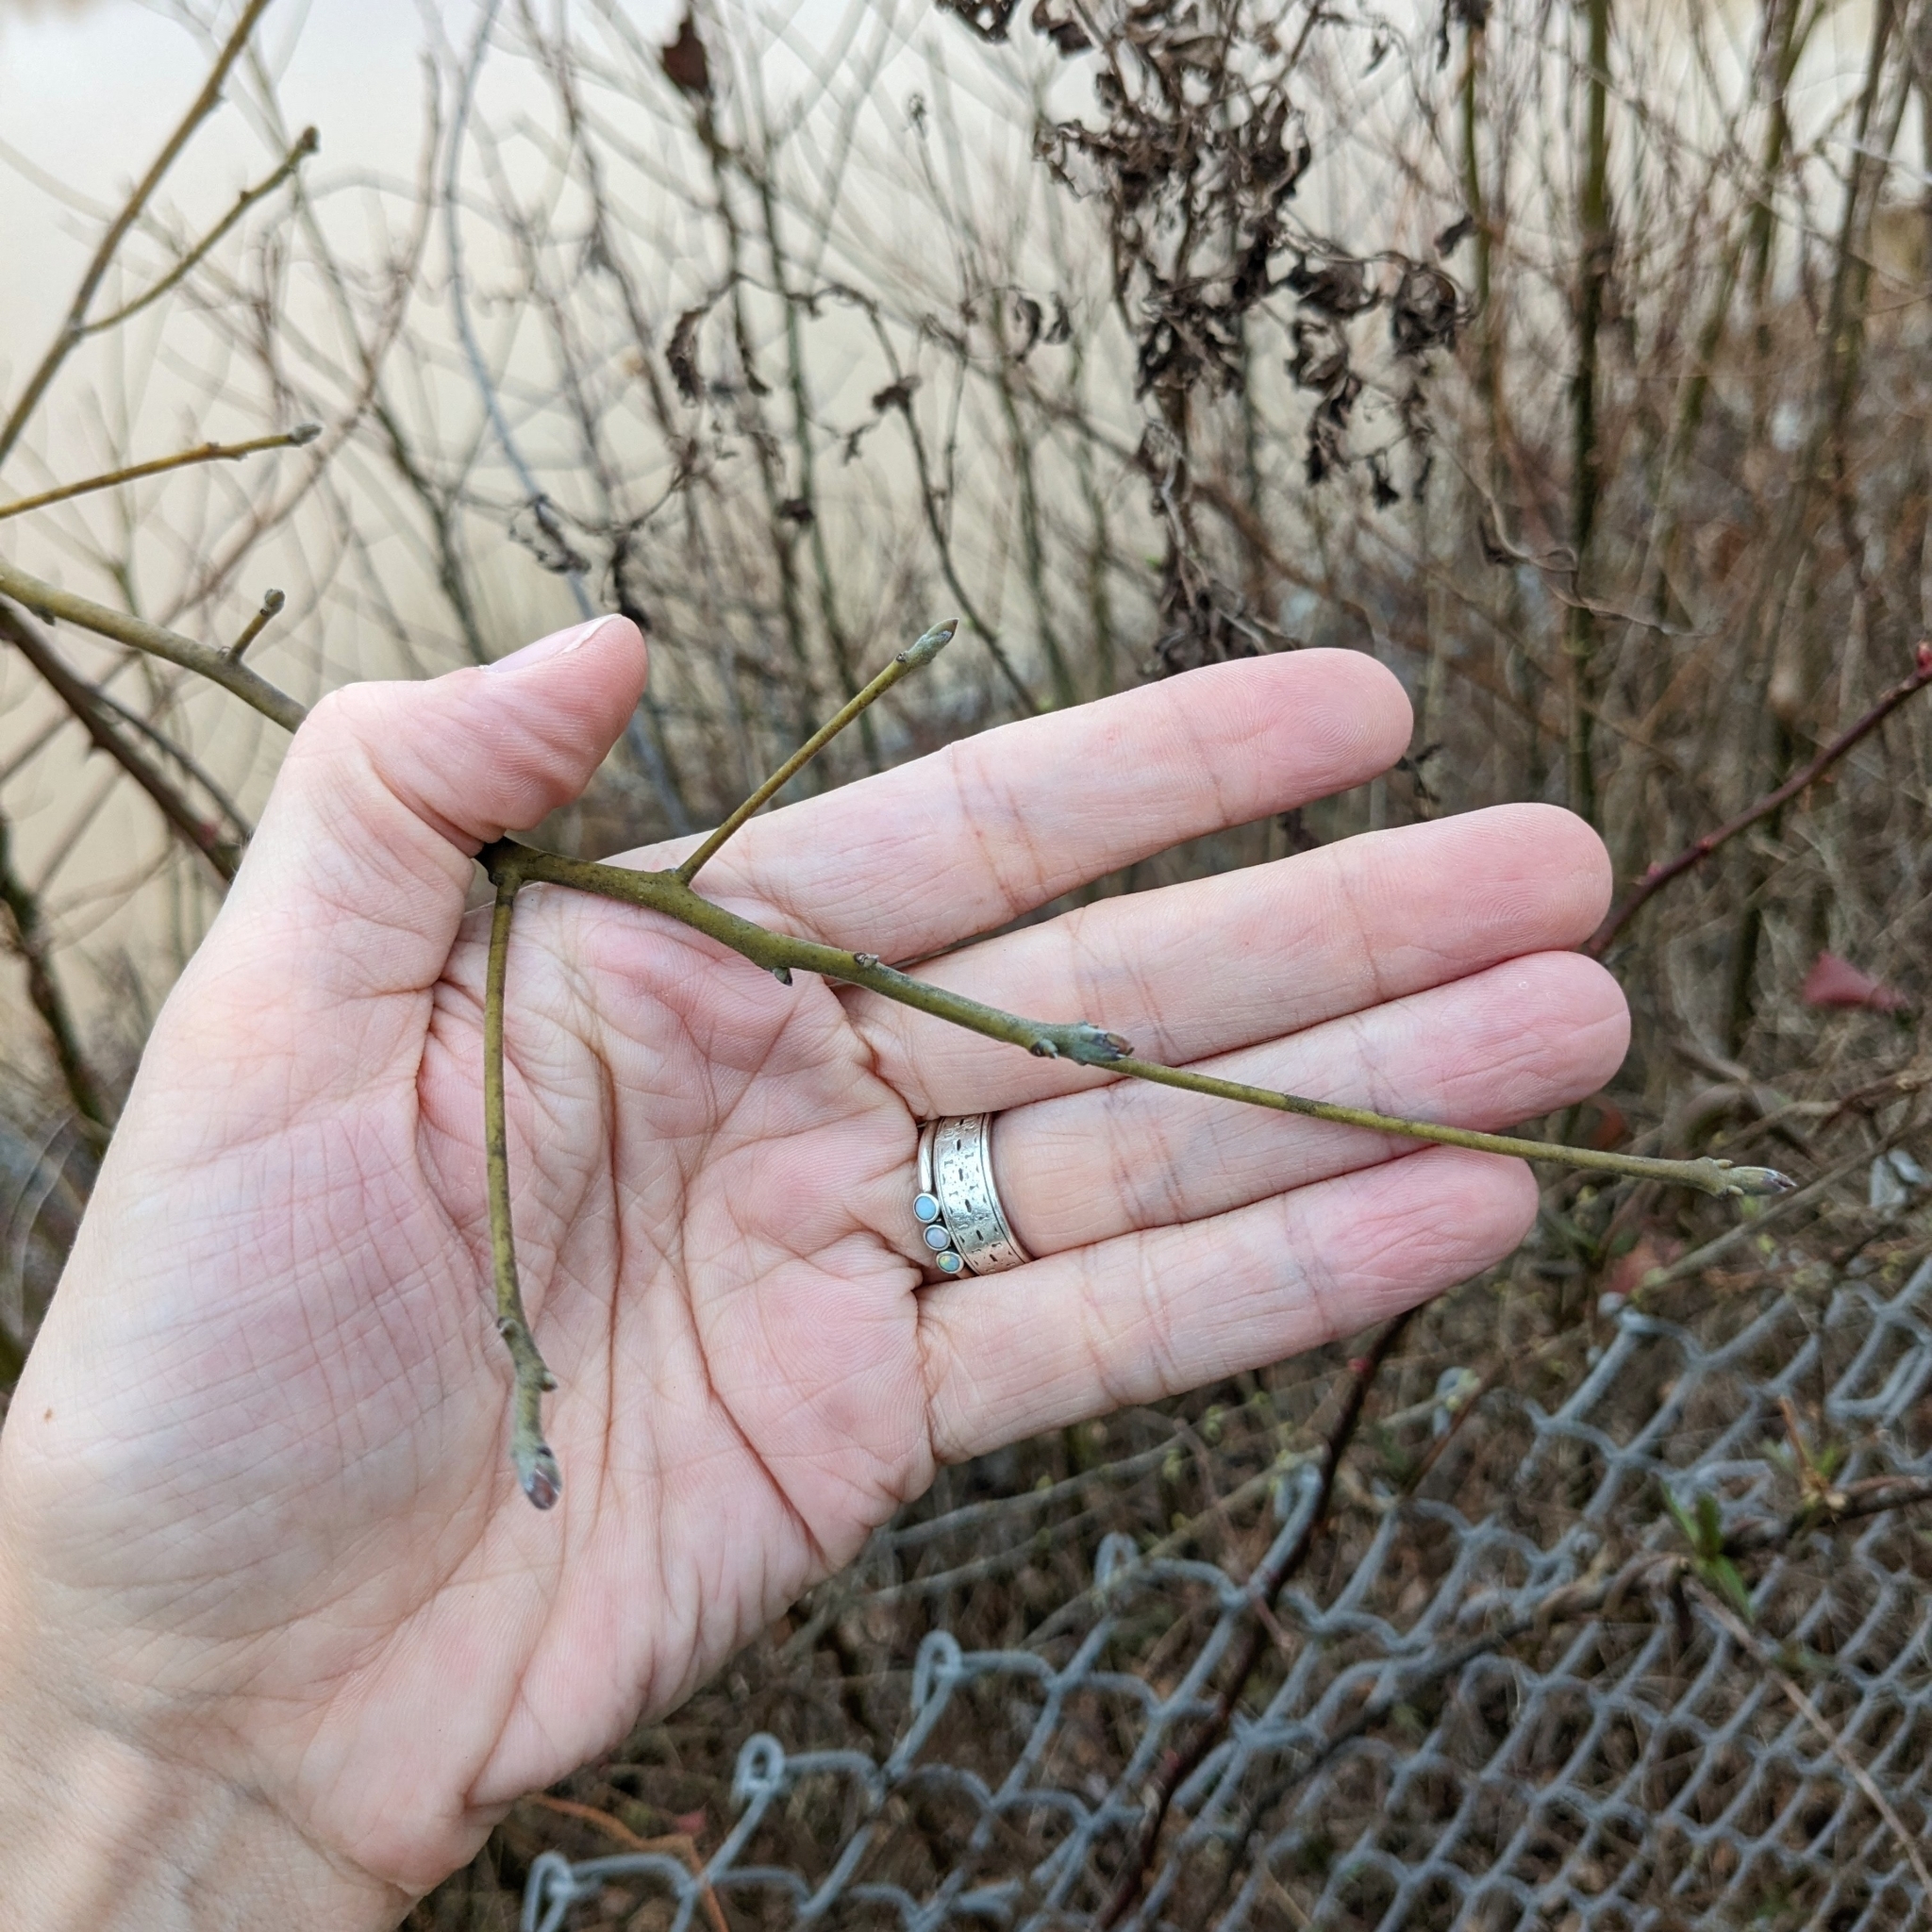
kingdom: Plantae
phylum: Tracheophyta
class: Magnoliopsida
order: Laurales
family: Lauraceae
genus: Sassafras
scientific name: Sassafras albidum
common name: Sassafras
